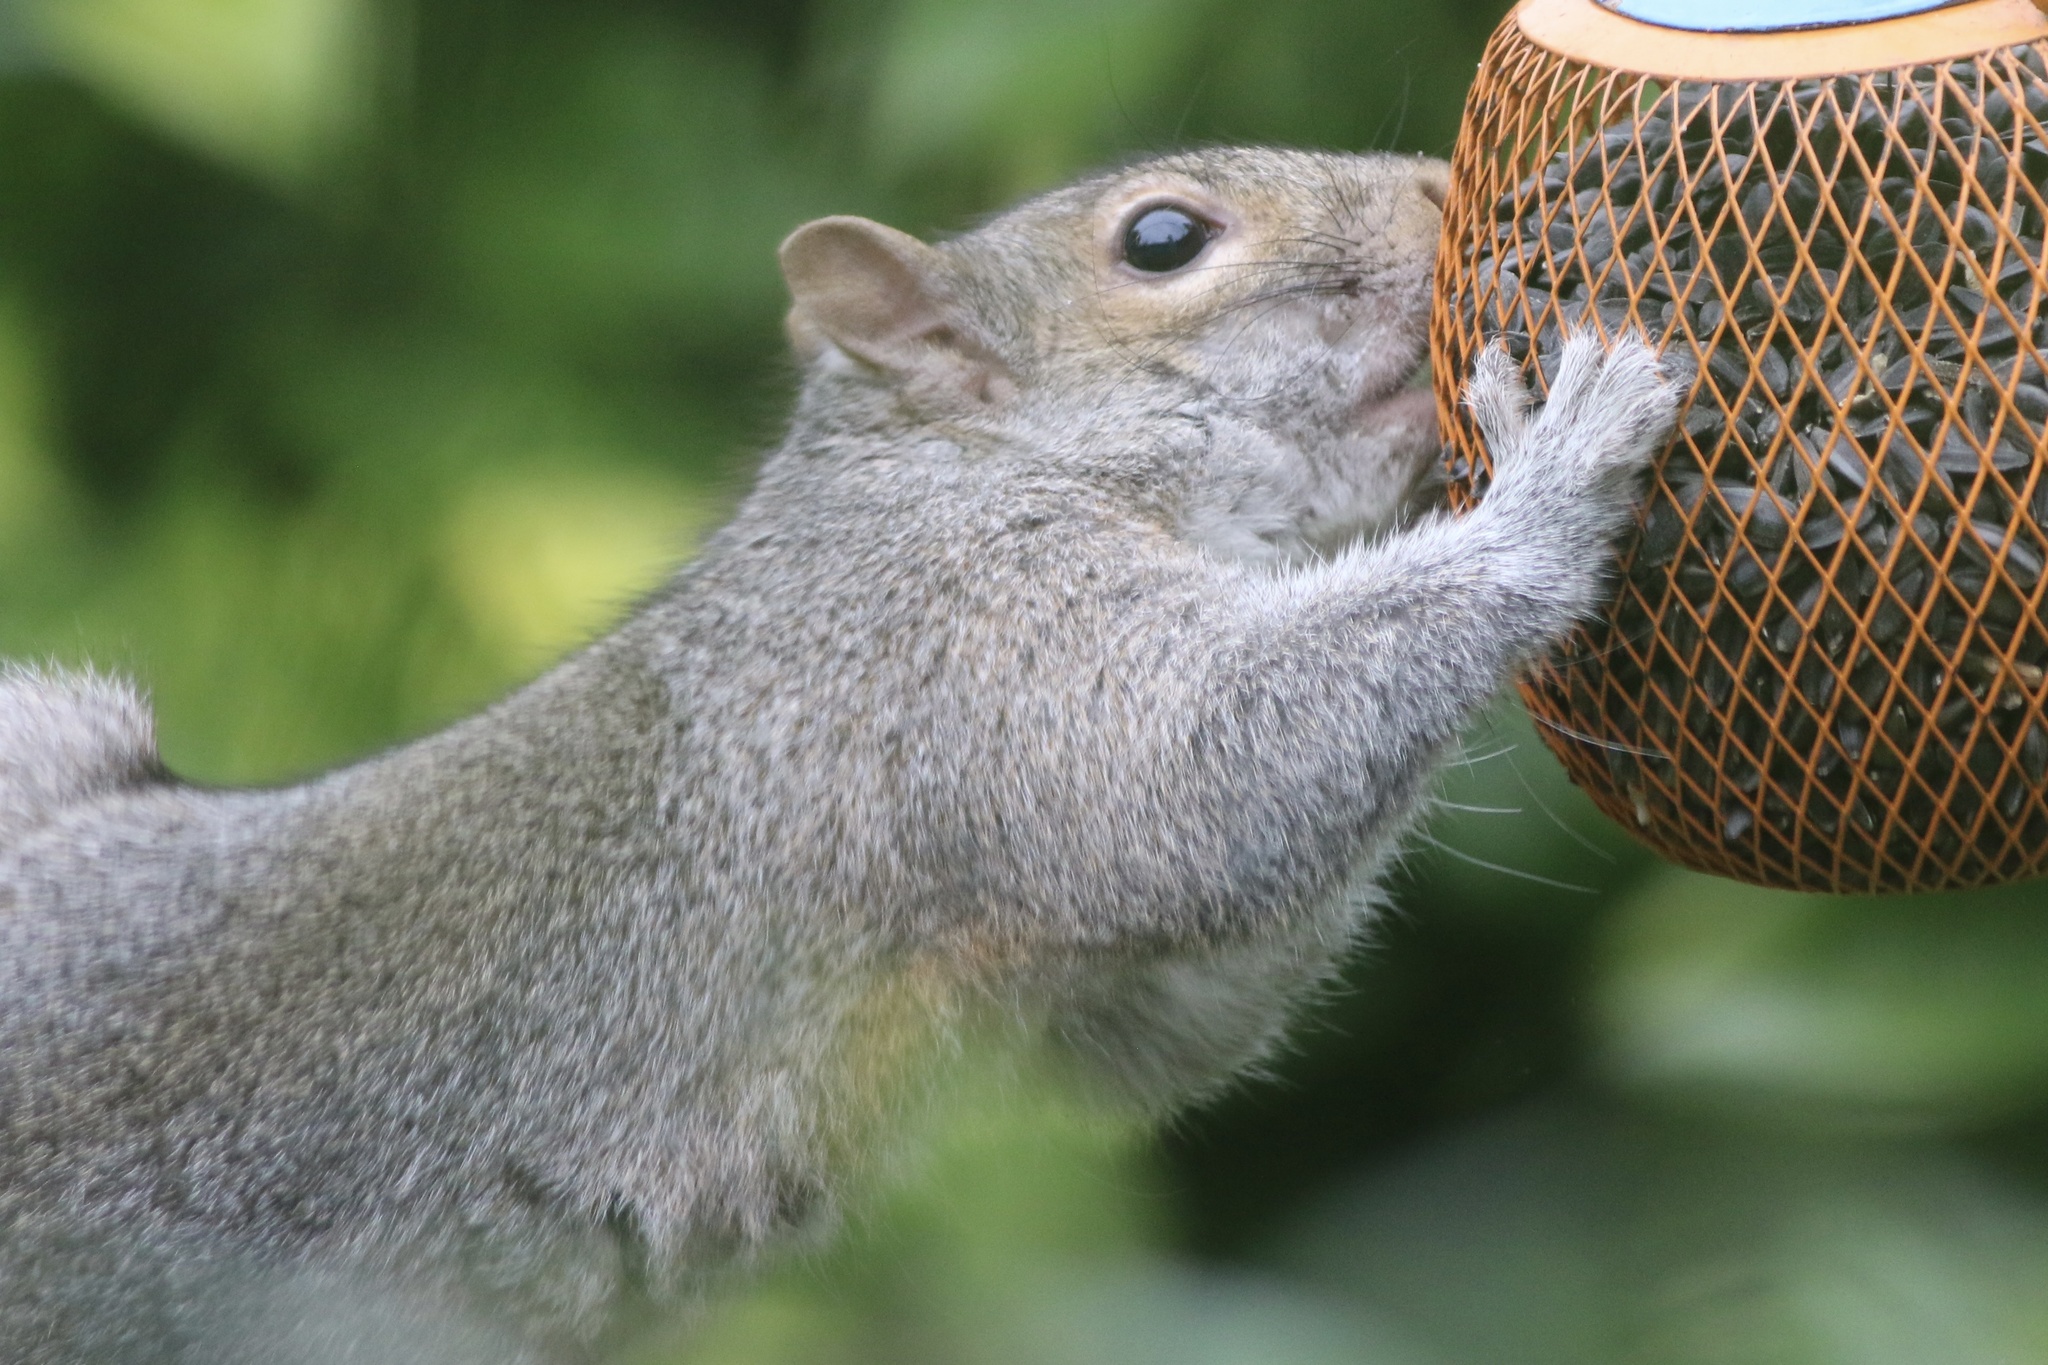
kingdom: Animalia
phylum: Chordata
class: Mammalia
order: Rodentia
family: Sciuridae
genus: Sciurus
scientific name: Sciurus carolinensis
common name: Eastern gray squirrel
